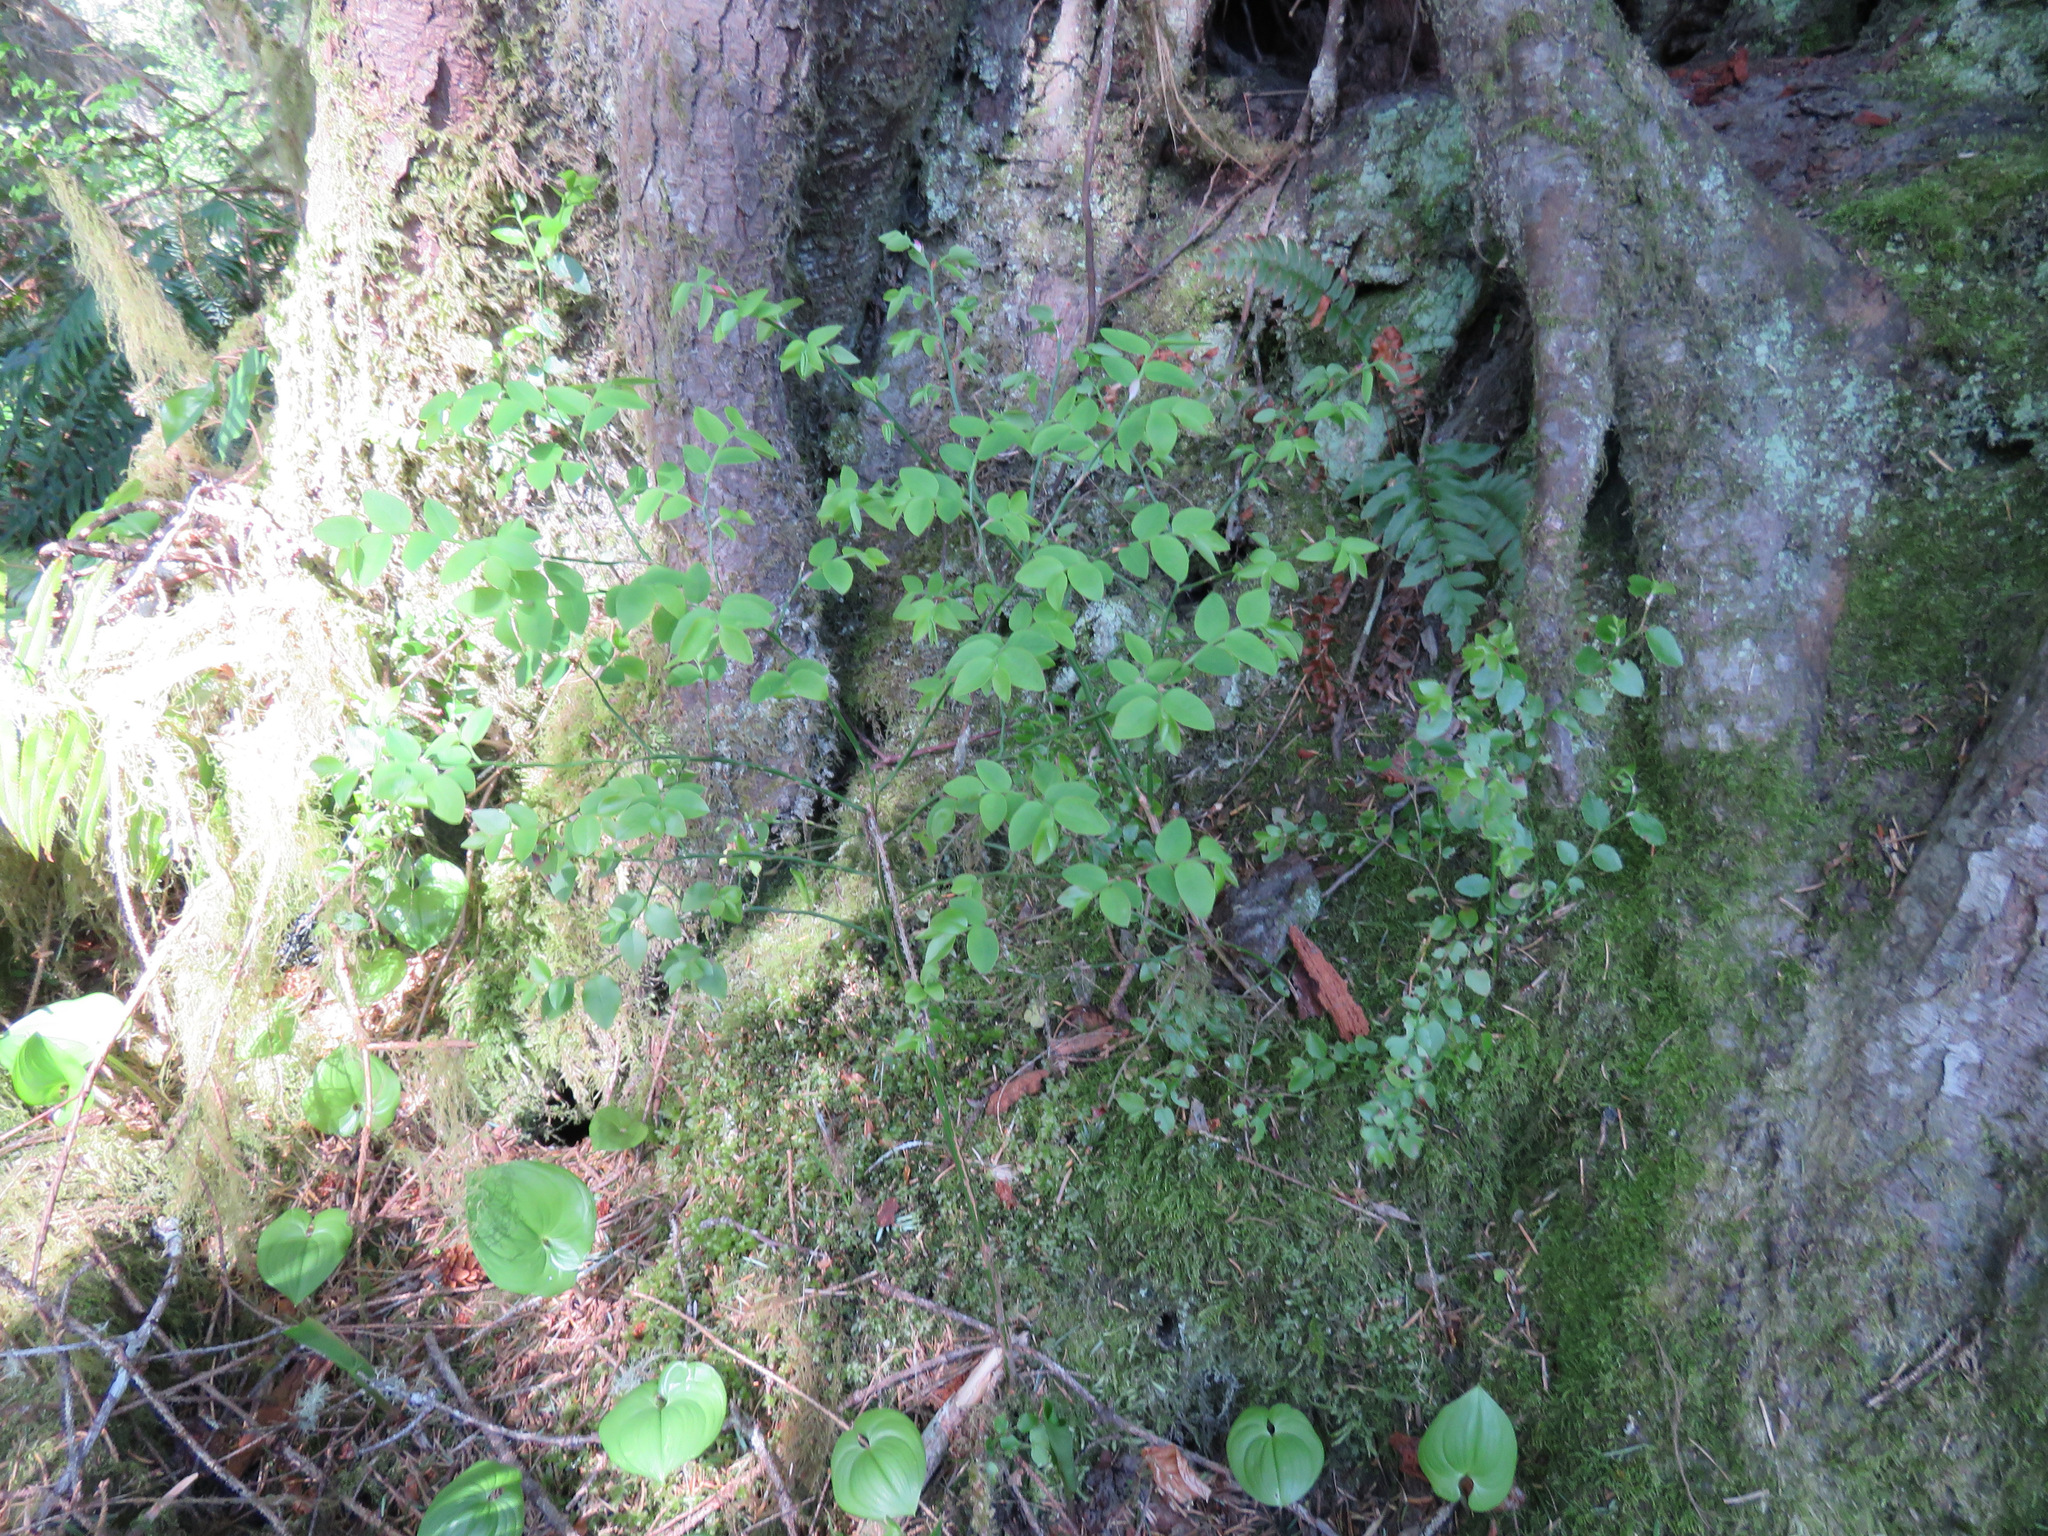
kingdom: Plantae
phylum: Tracheophyta
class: Magnoliopsida
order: Ericales
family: Ericaceae
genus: Vaccinium
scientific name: Vaccinium parvifolium
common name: Red-huckleberry
